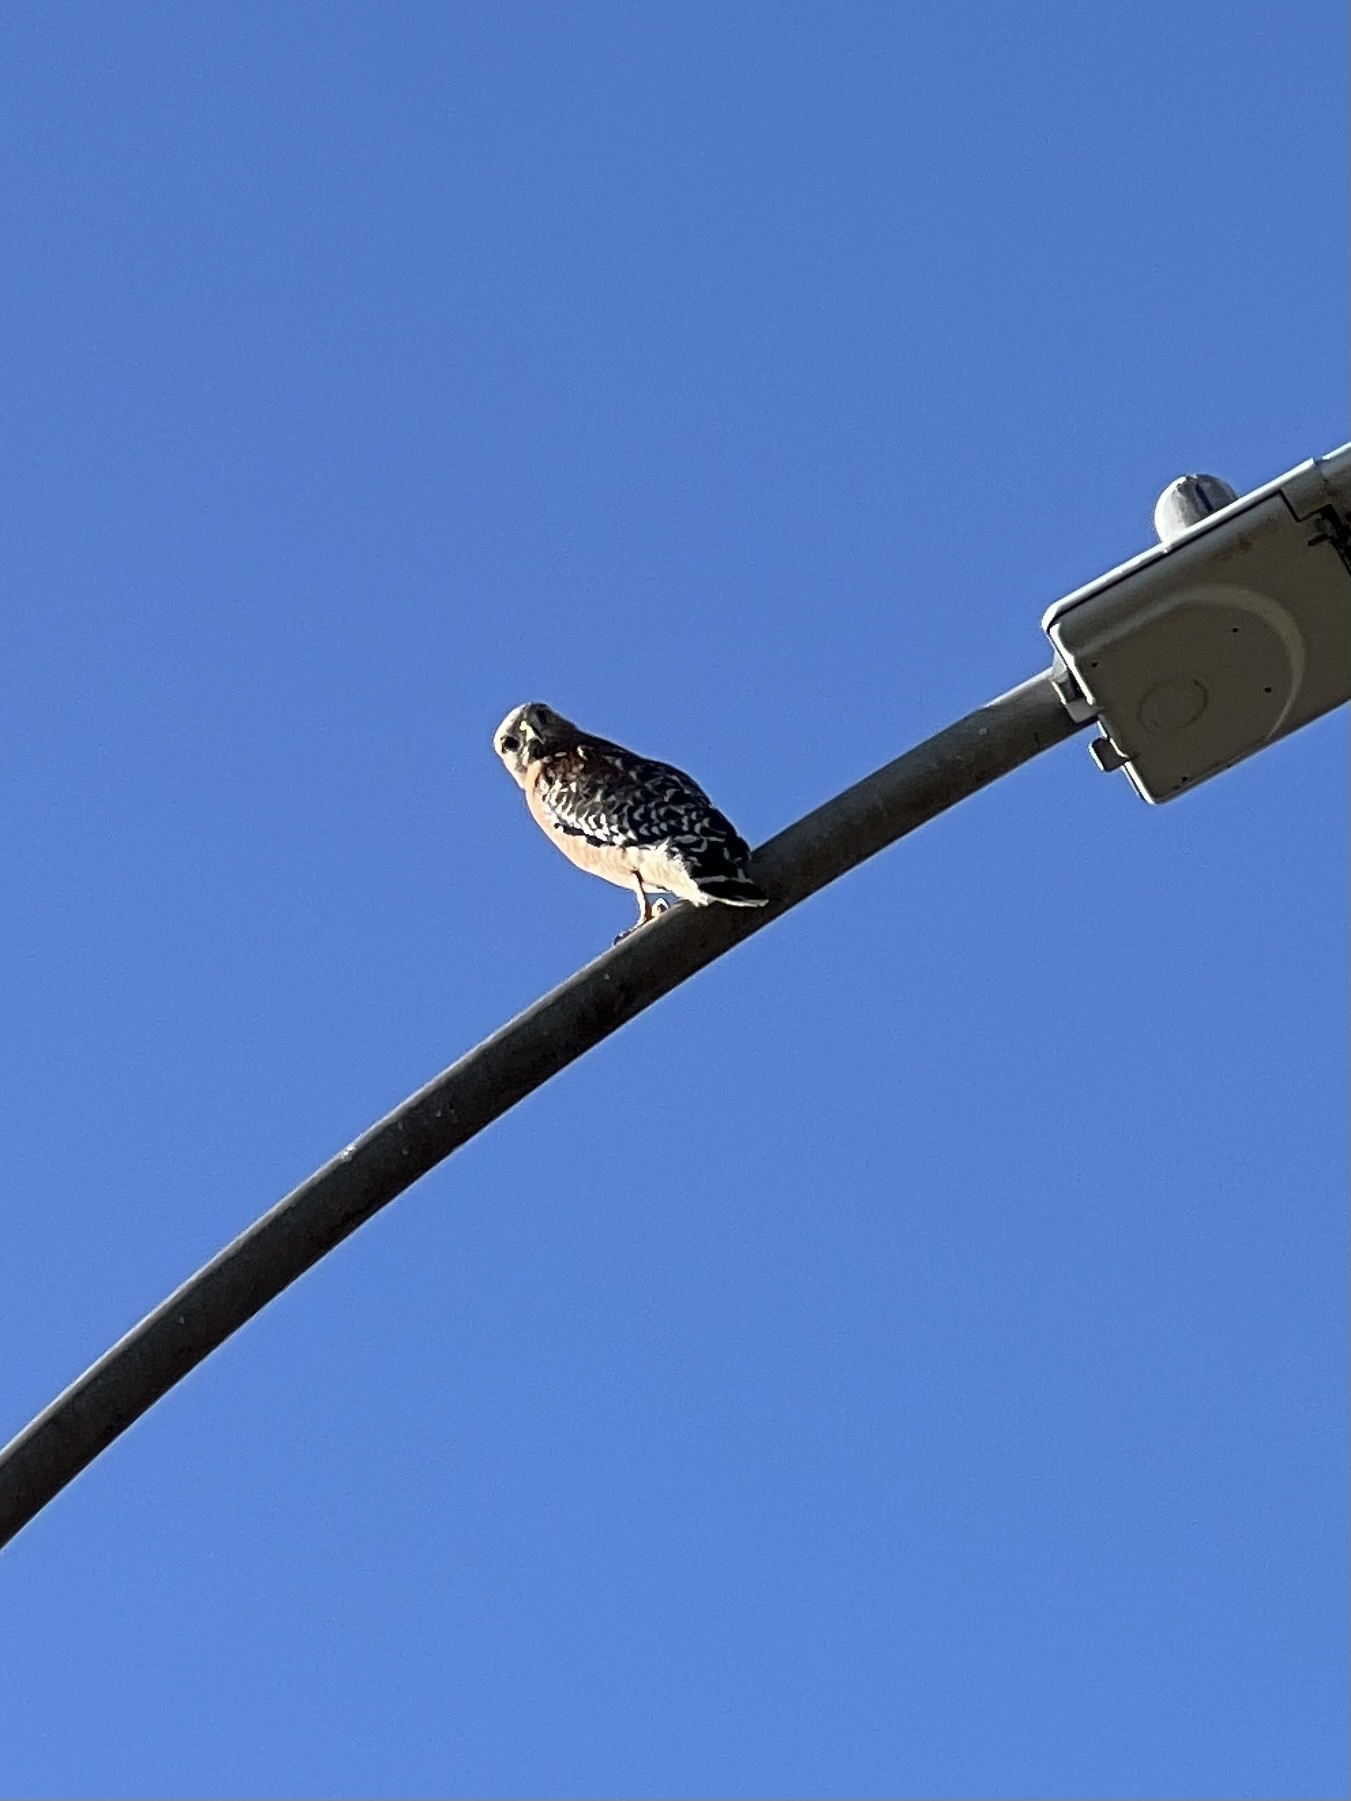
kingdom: Animalia
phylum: Chordata
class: Aves
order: Accipitriformes
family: Accipitridae
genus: Buteo
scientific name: Buteo lineatus
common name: Red-shouldered hawk
